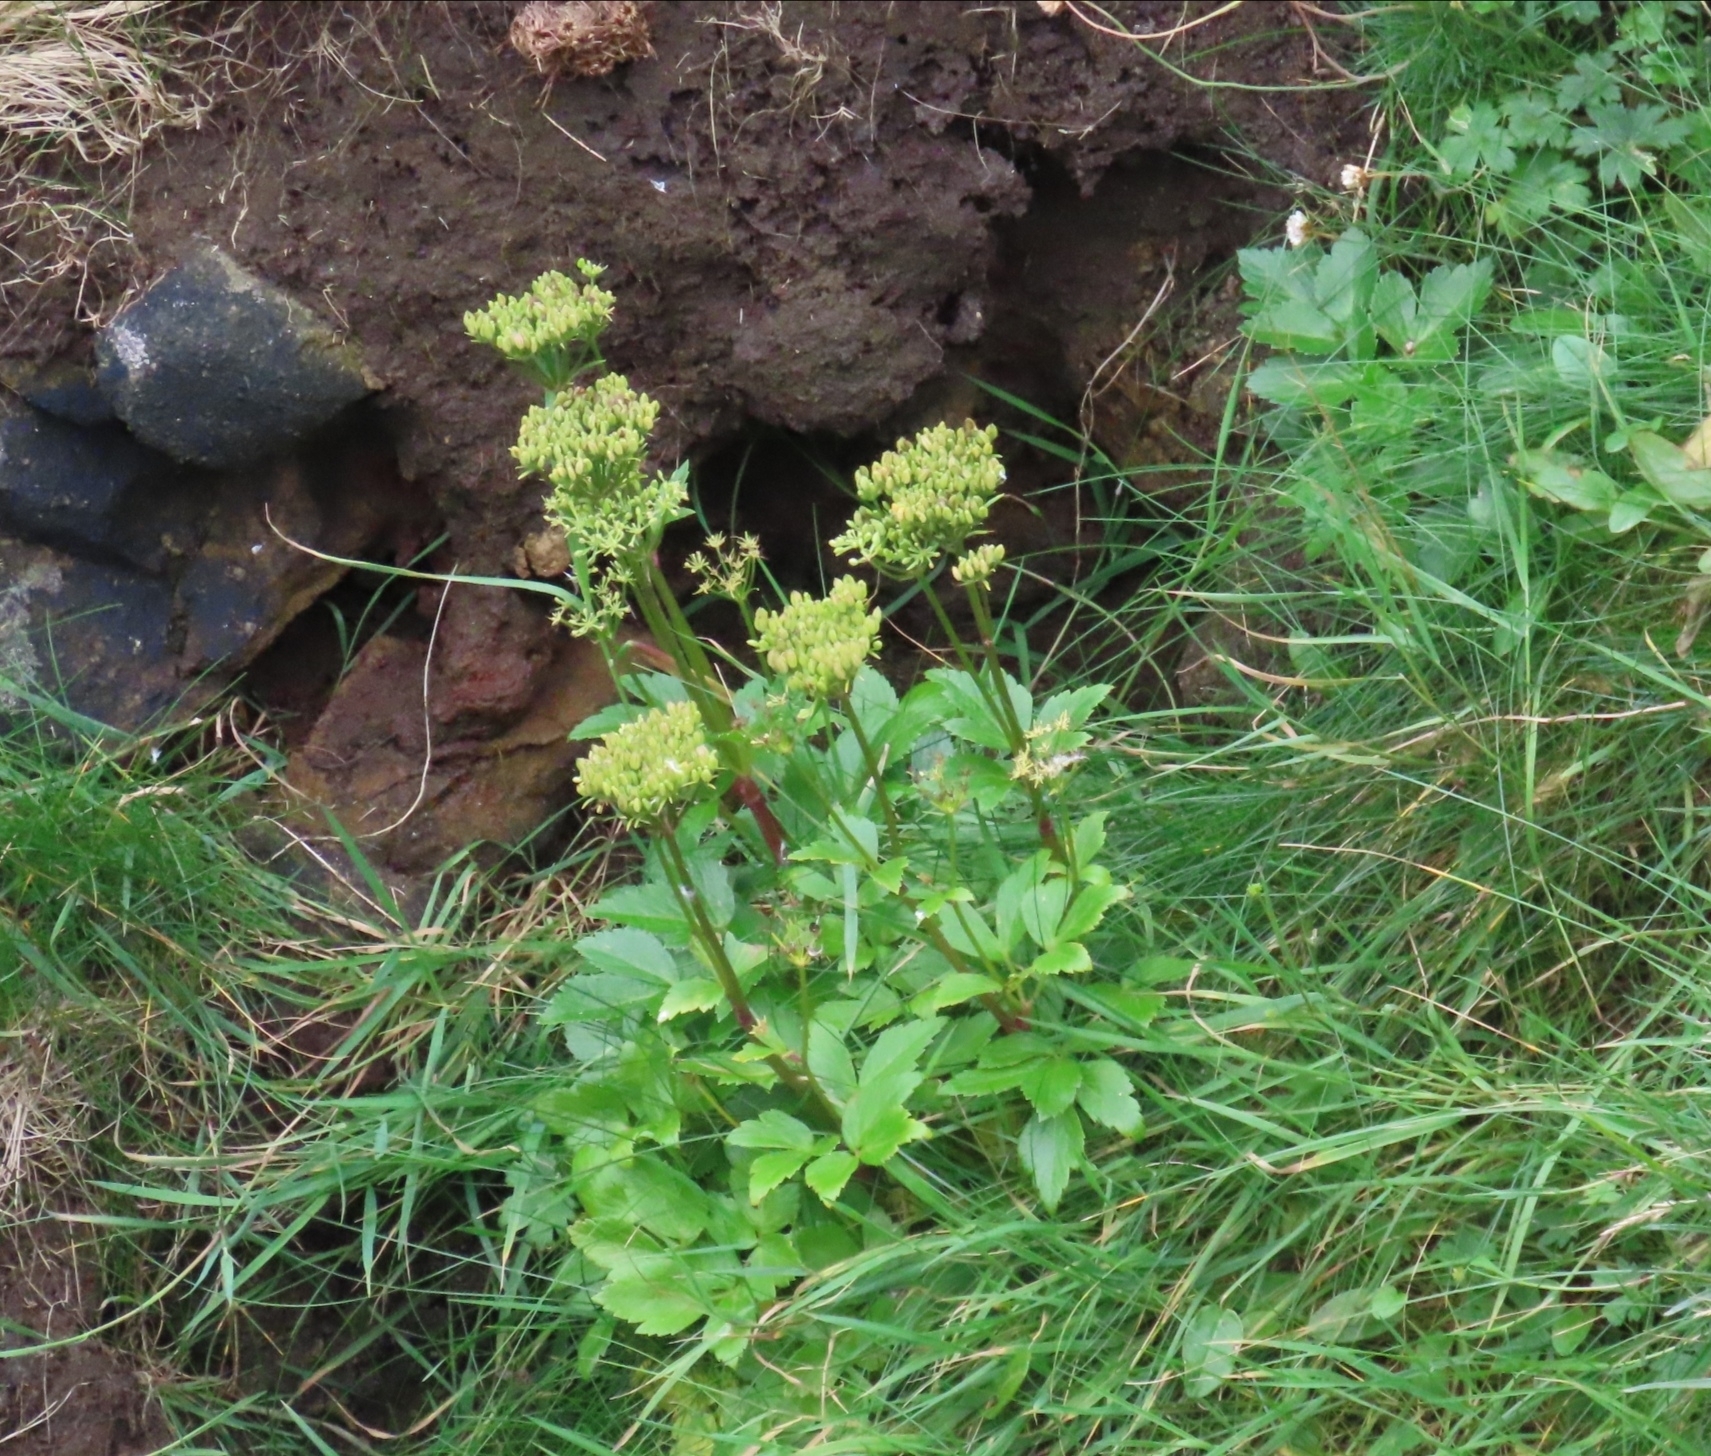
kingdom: Plantae
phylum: Tracheophyta
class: Magnoliopsida
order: Apiales
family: Apiaceae
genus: Ligusticum
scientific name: Ligusticum scothicum
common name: Beach lovage
